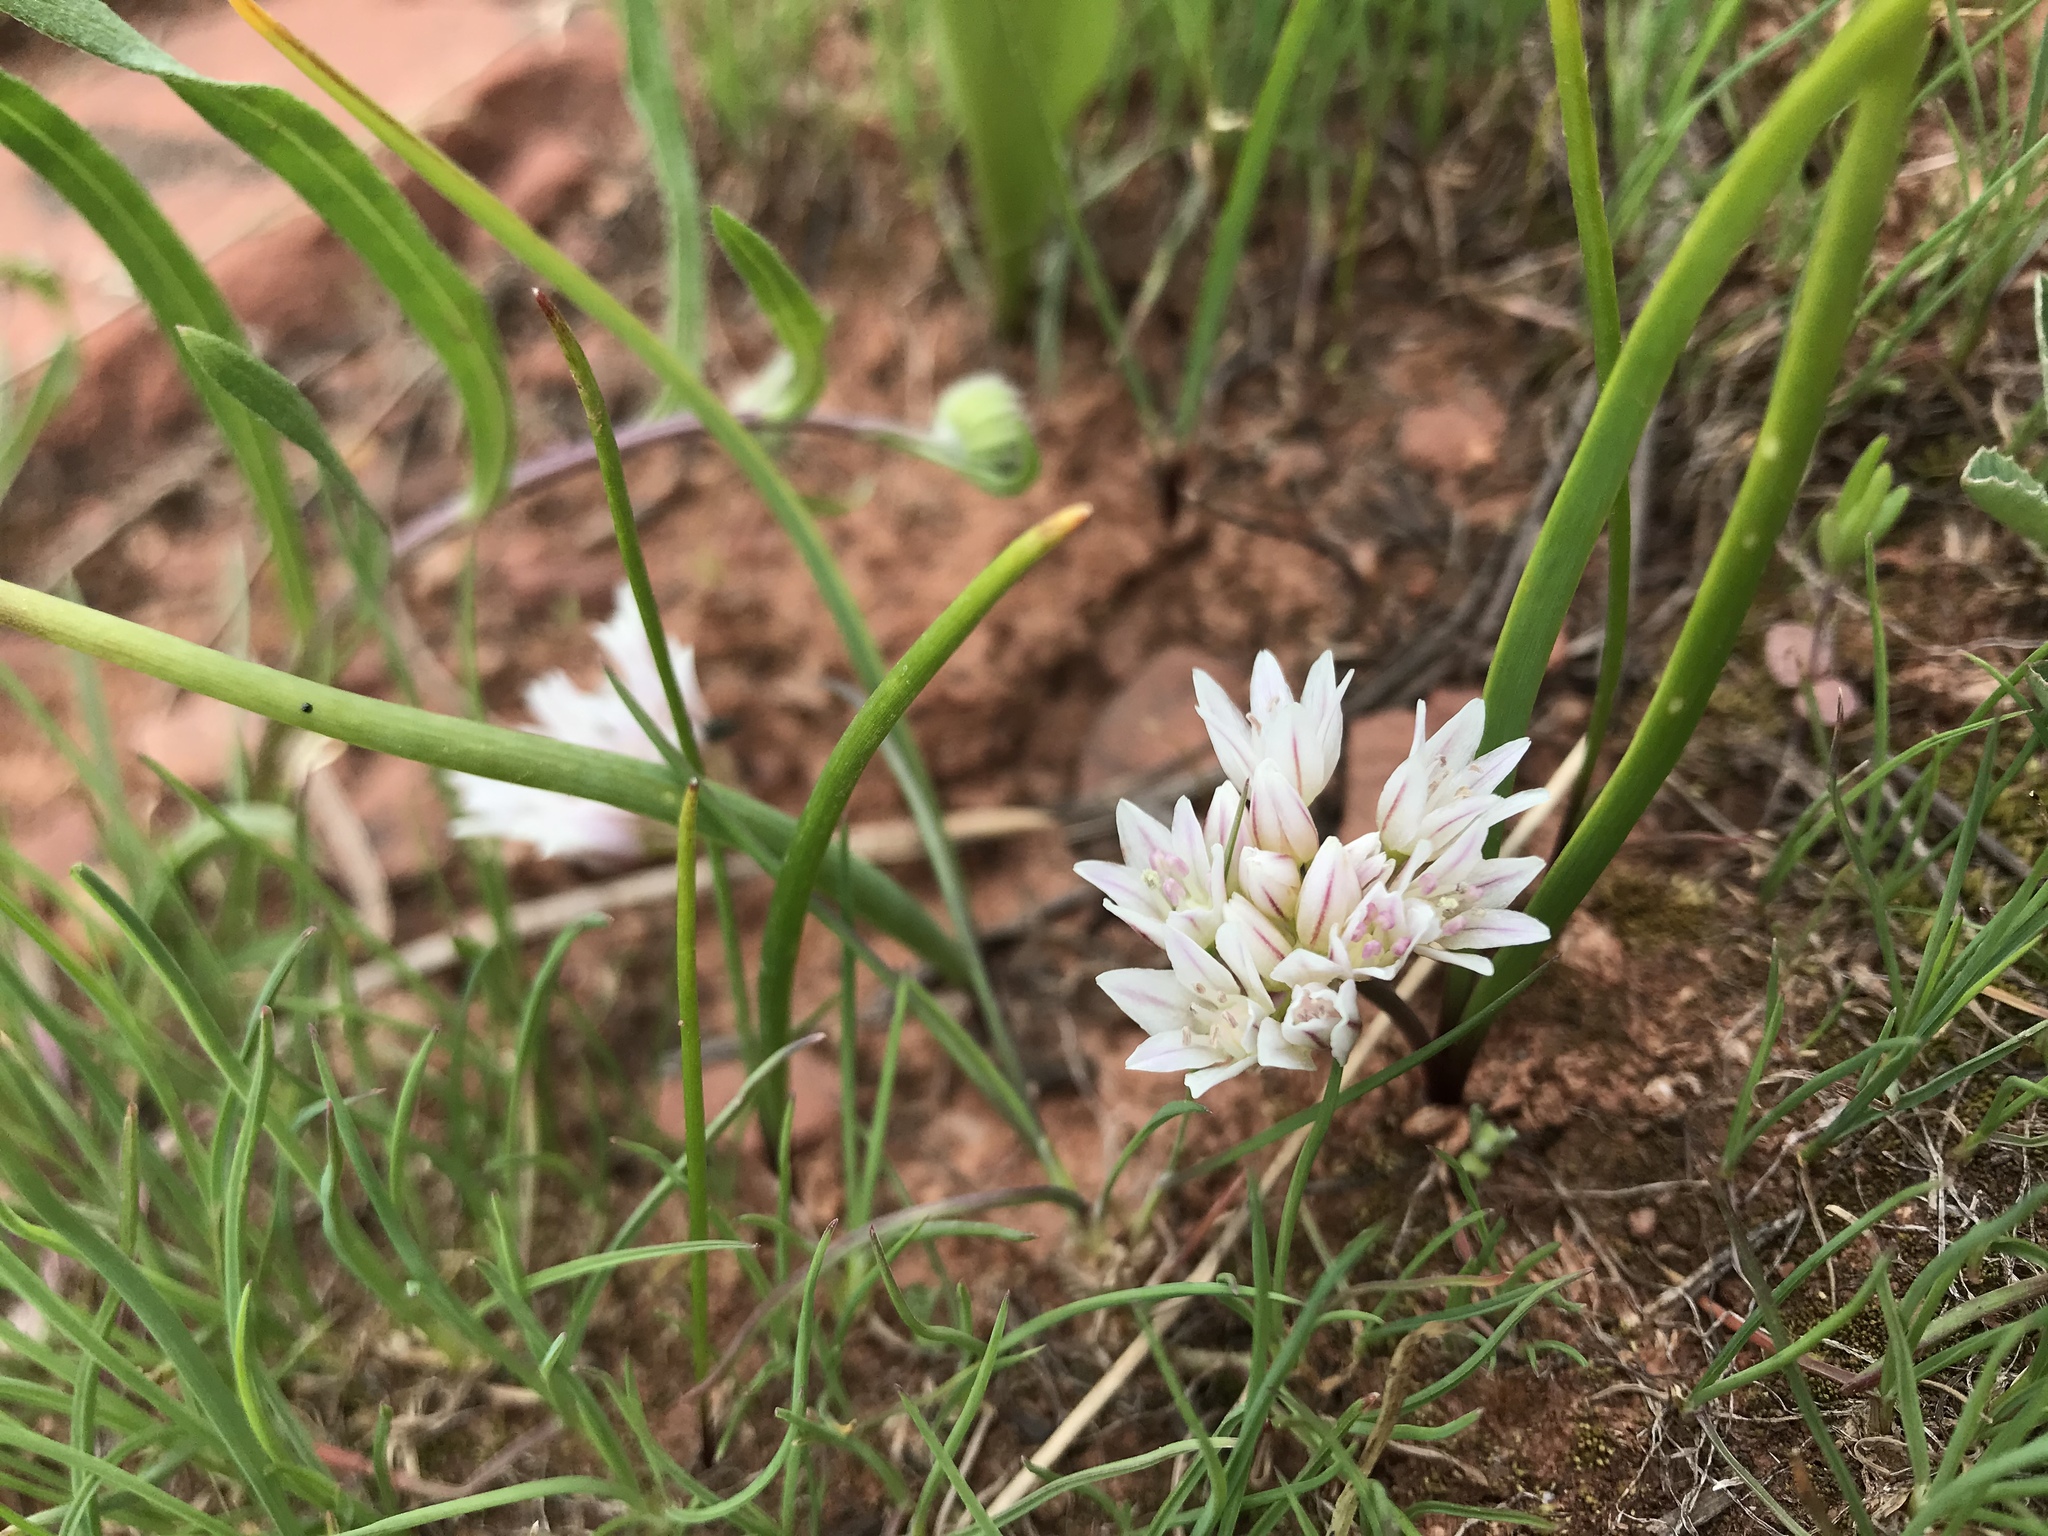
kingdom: Plantae
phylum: Tracheophyta
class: Liliopsida
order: Asparagales
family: Amaryllidaceae
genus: Allium
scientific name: Allium brandegeei
